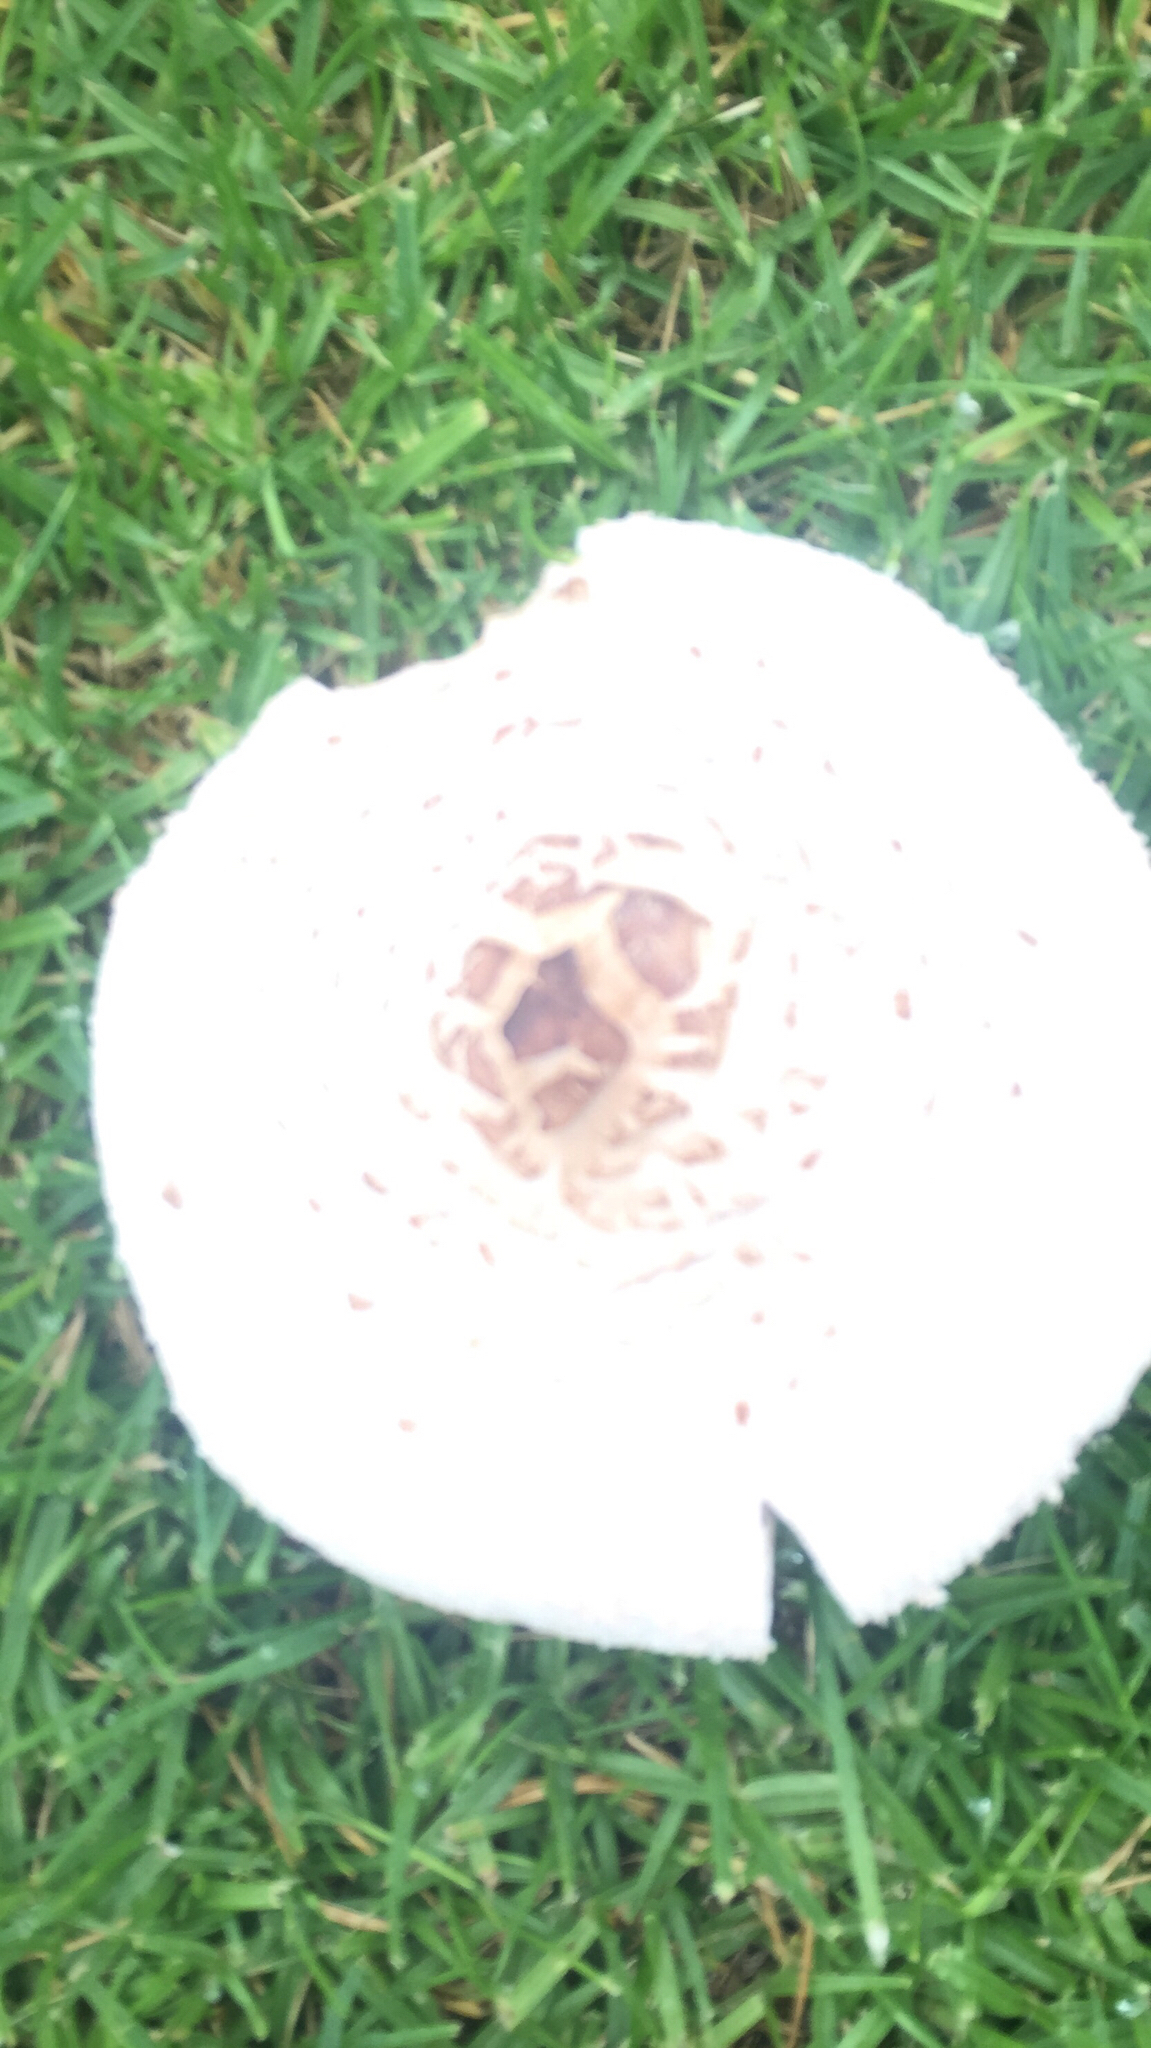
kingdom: Fungi
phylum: Basidiomycota
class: Agaricomycetes
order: Agaricales
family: Agaricaceae
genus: Chlorophyllum
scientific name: Chlorophyllum molybdites
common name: False parasol
